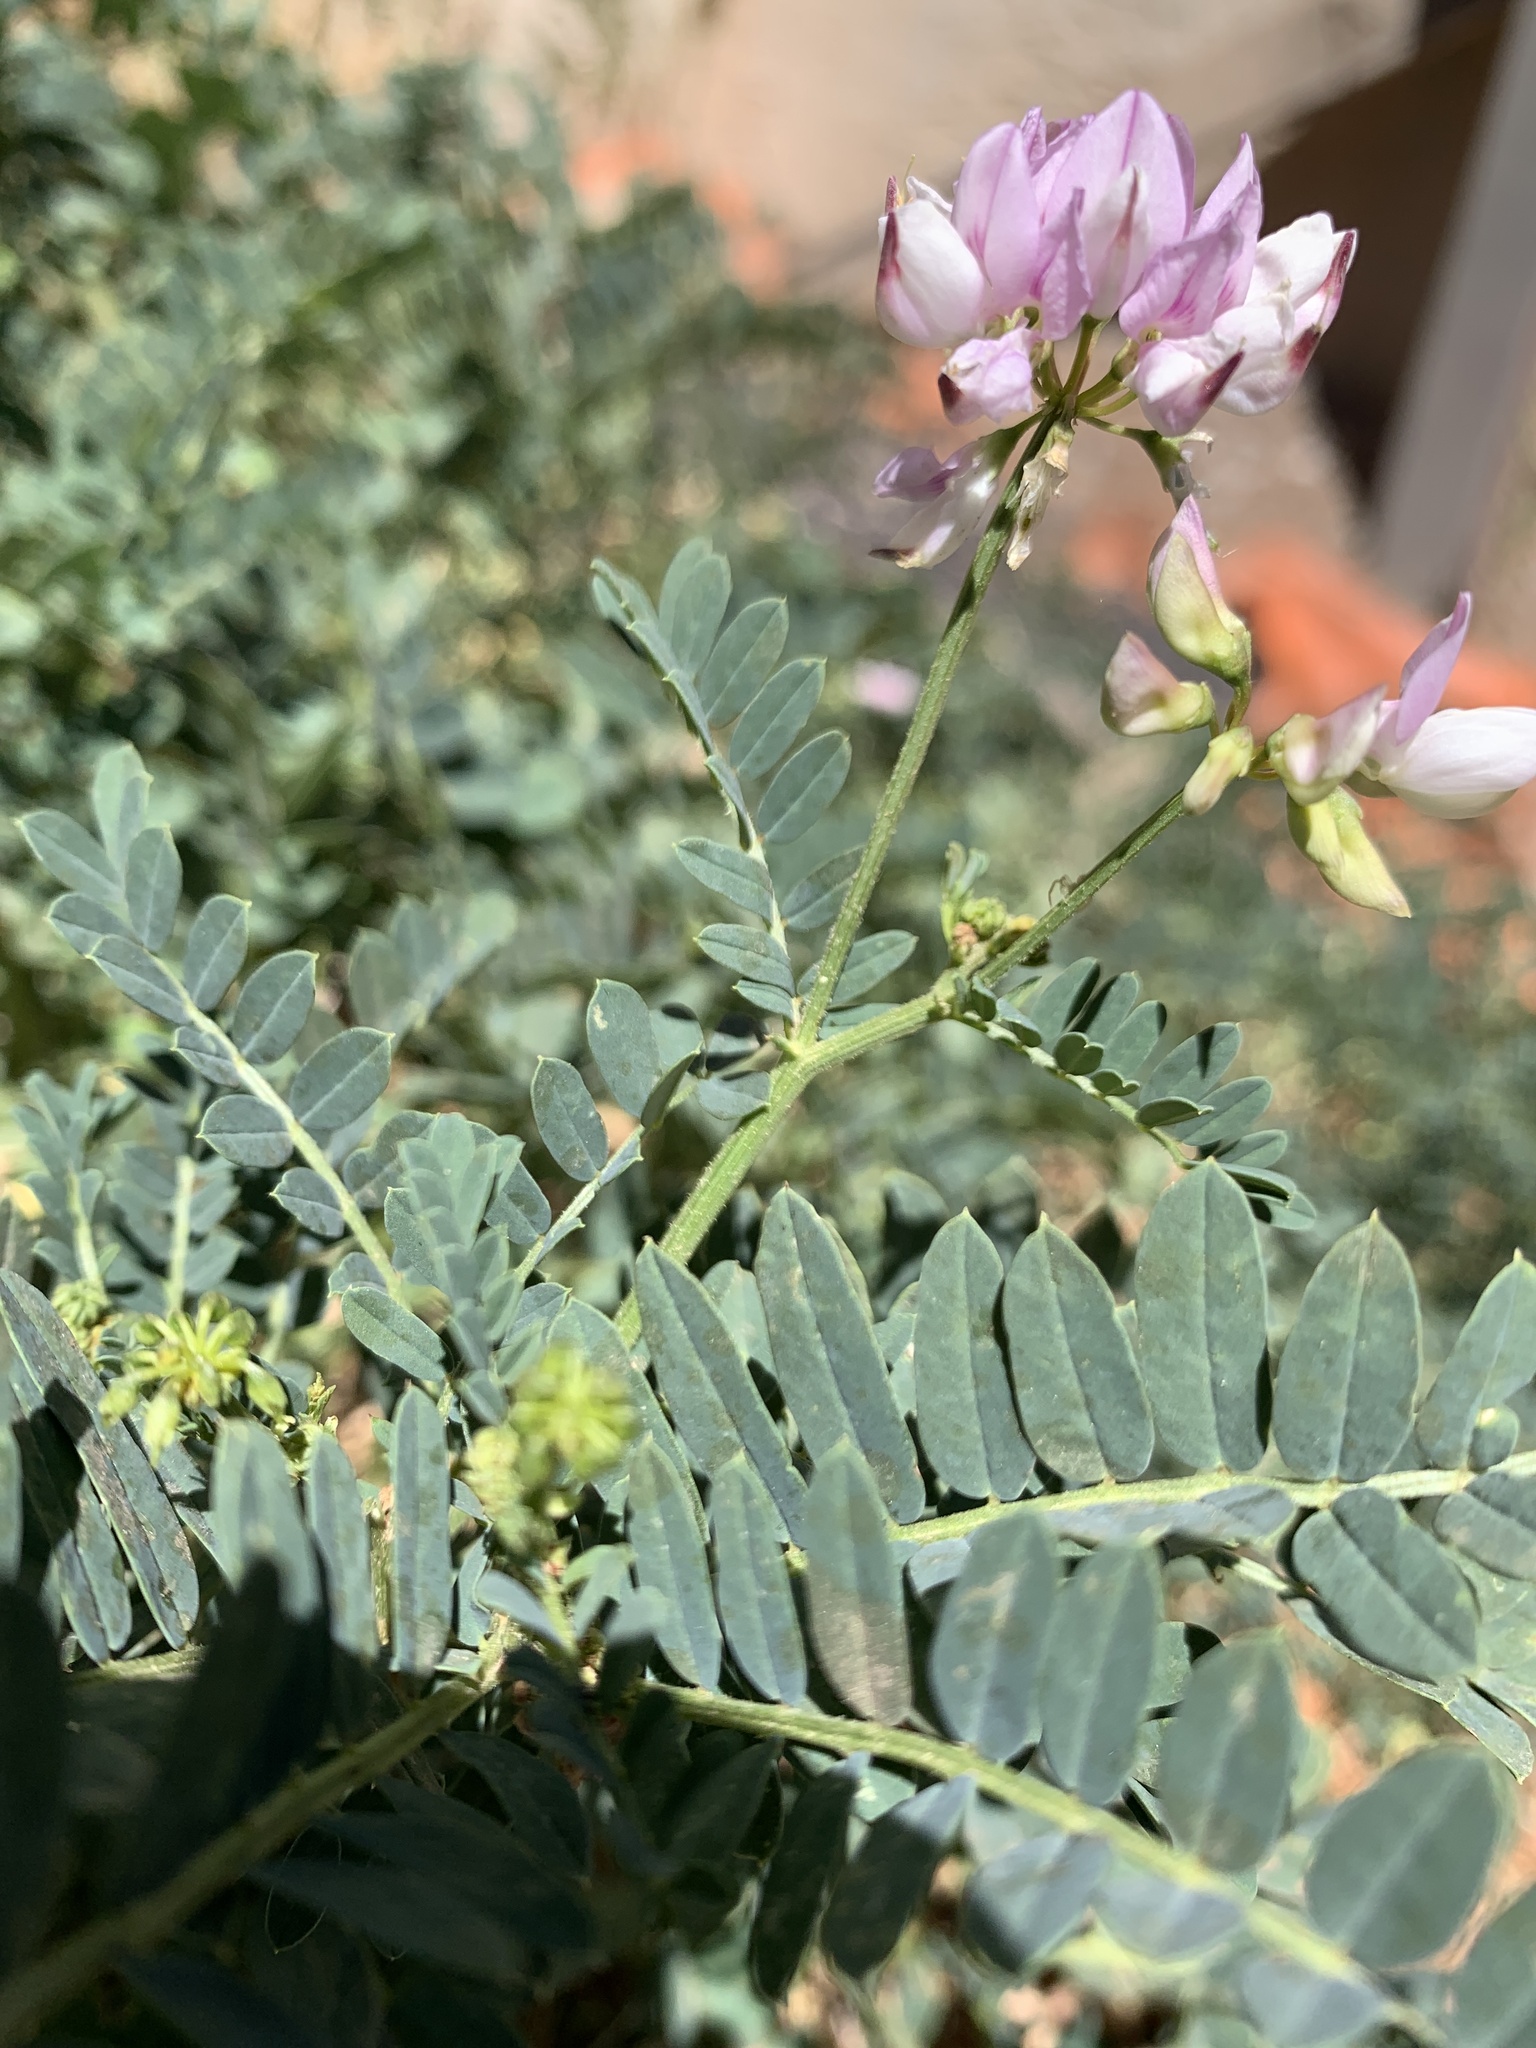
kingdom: Plantae
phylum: Tracheophyta
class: Magnoliopsida
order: Fabales
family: Fabaceae
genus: Coronilla
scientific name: Coronilla varia
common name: Crownvetch
